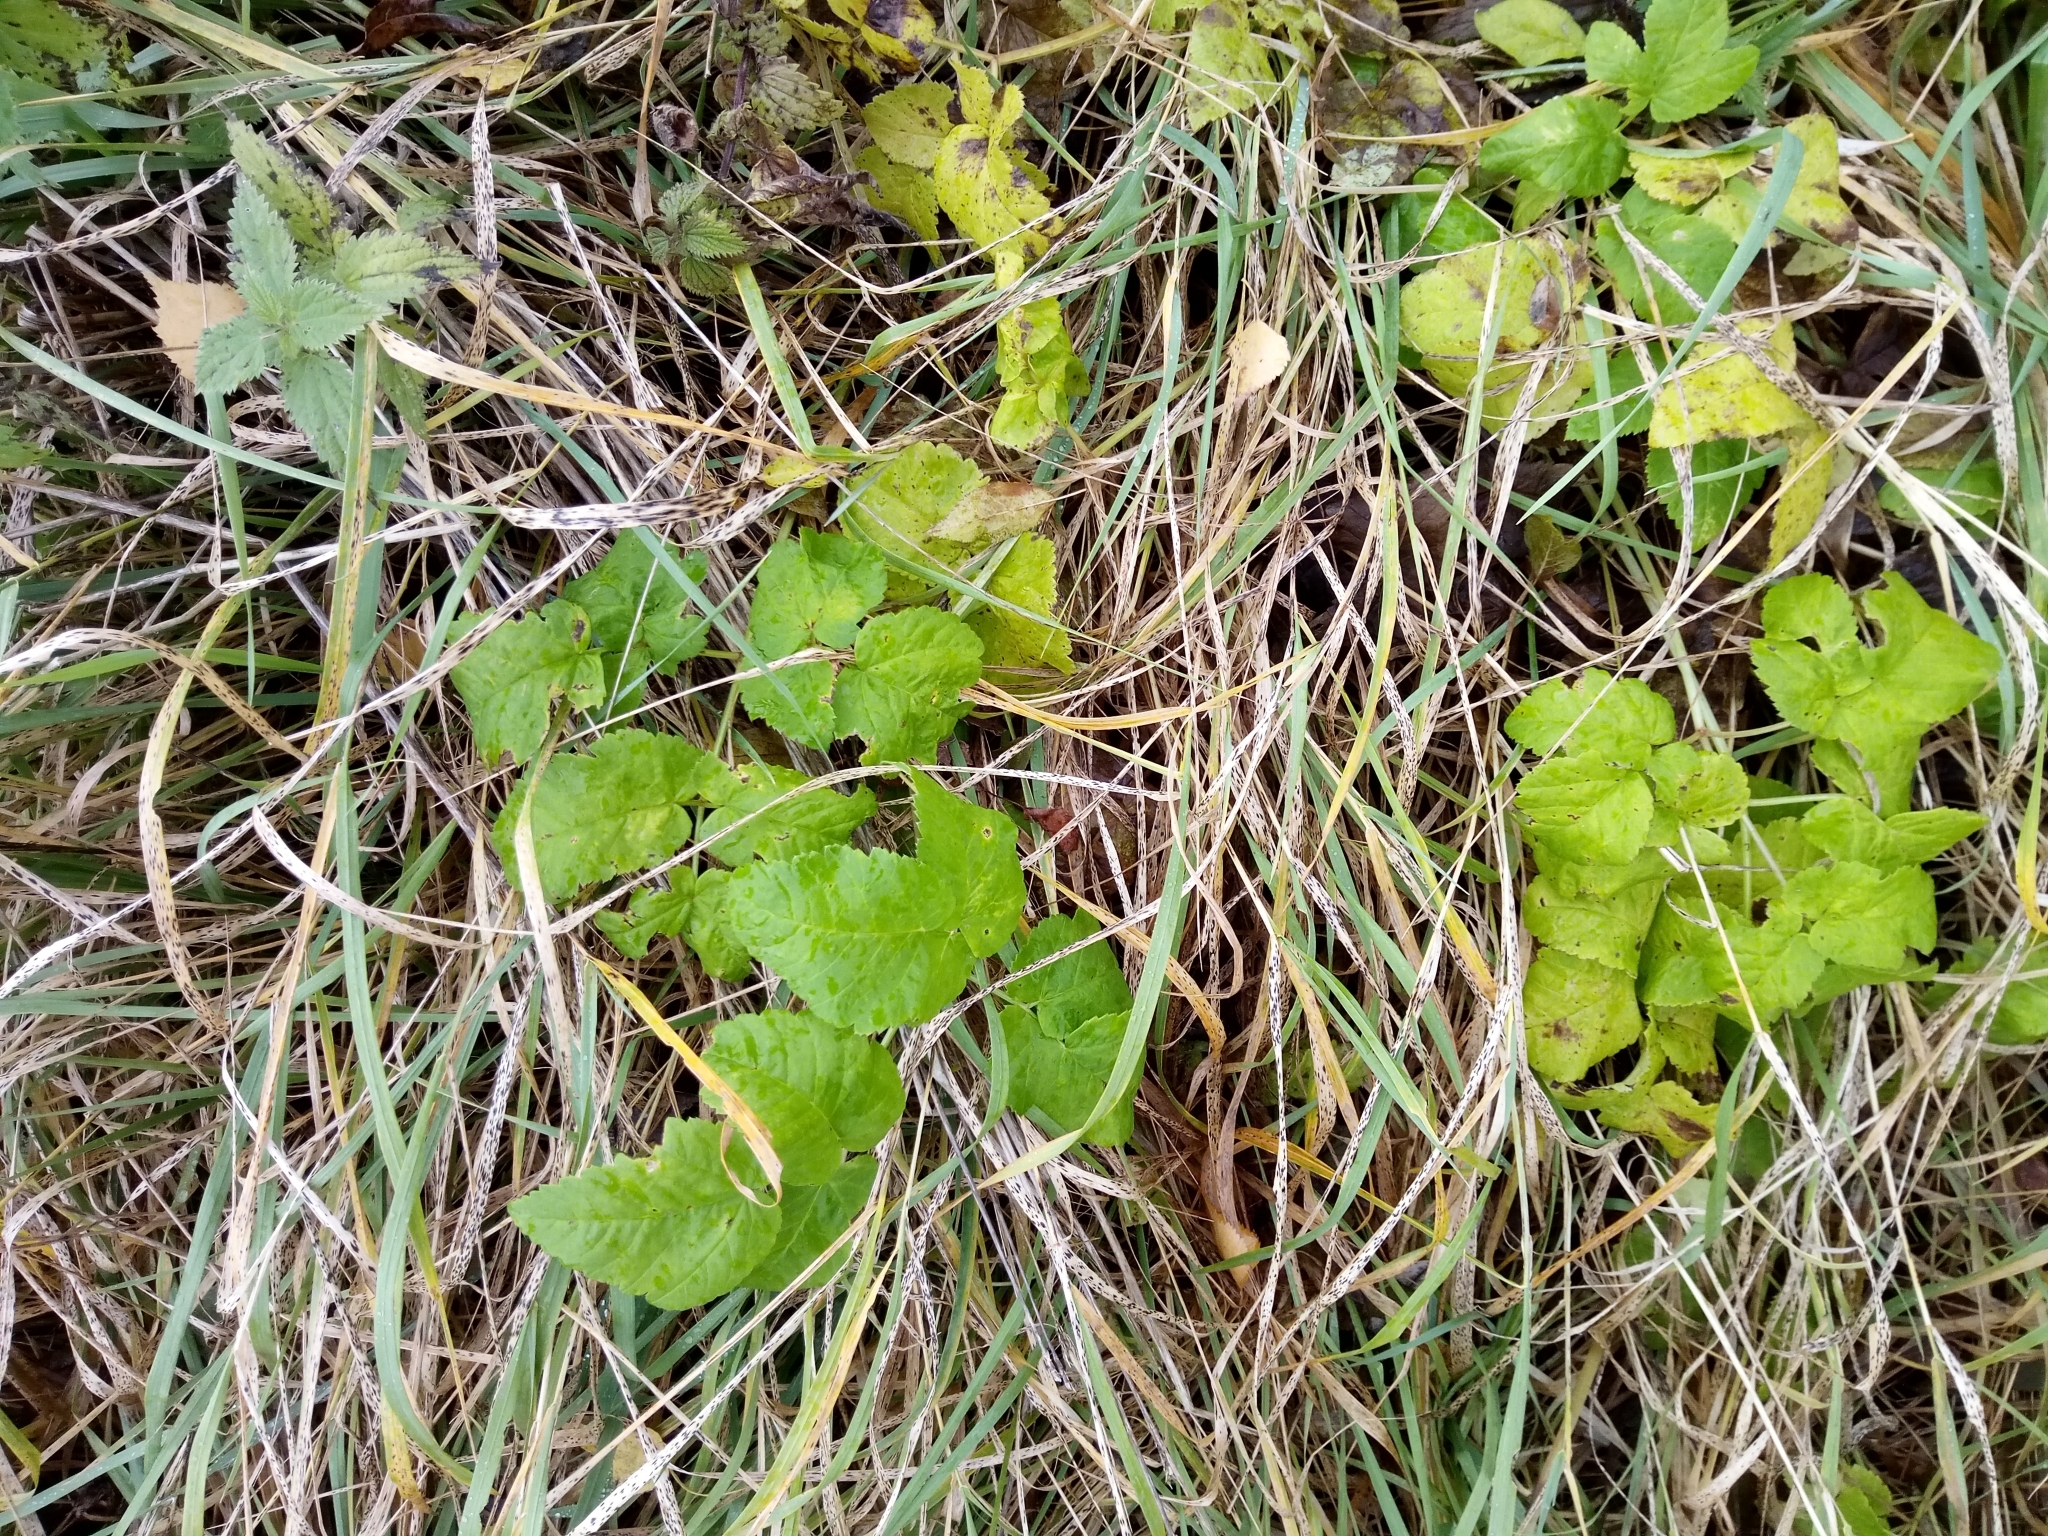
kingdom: Plantae
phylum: Tracheophyta
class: Magnoliopsida
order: Apiales
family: Apiaceae
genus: Aegopodium
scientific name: Aegopodium podagraria
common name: Ground-elder
